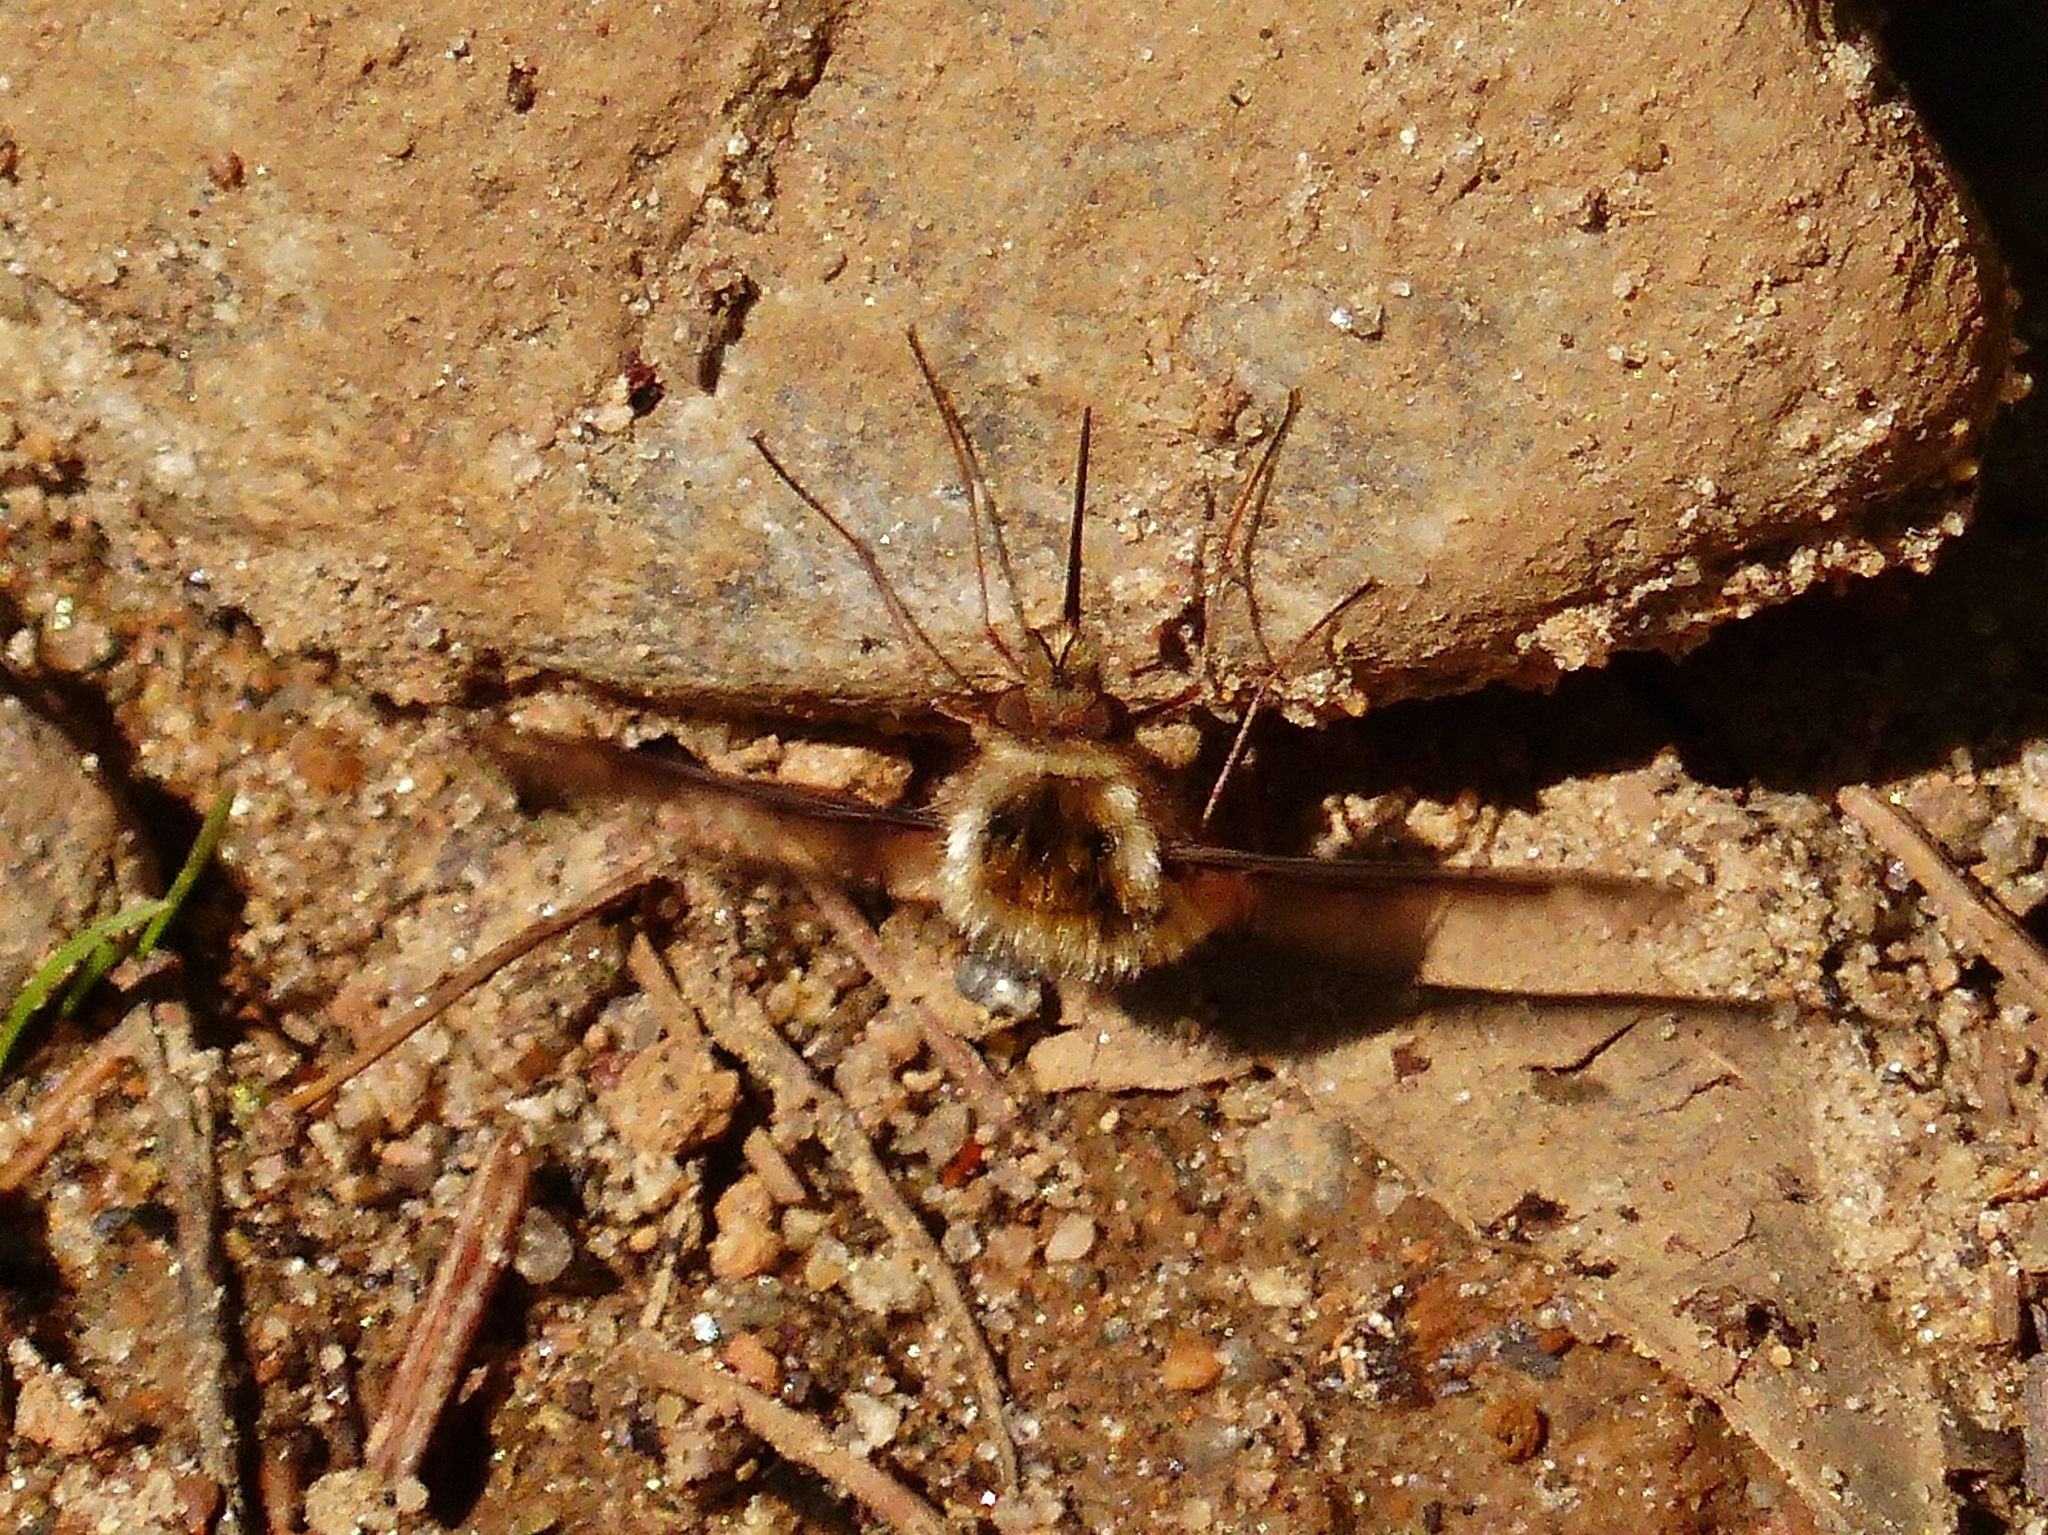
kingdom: Animalia
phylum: Arthropoda
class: Insecta
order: Diptera
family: Bombyliidae
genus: Bombylius
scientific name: Bombylius major
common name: Bee fly
